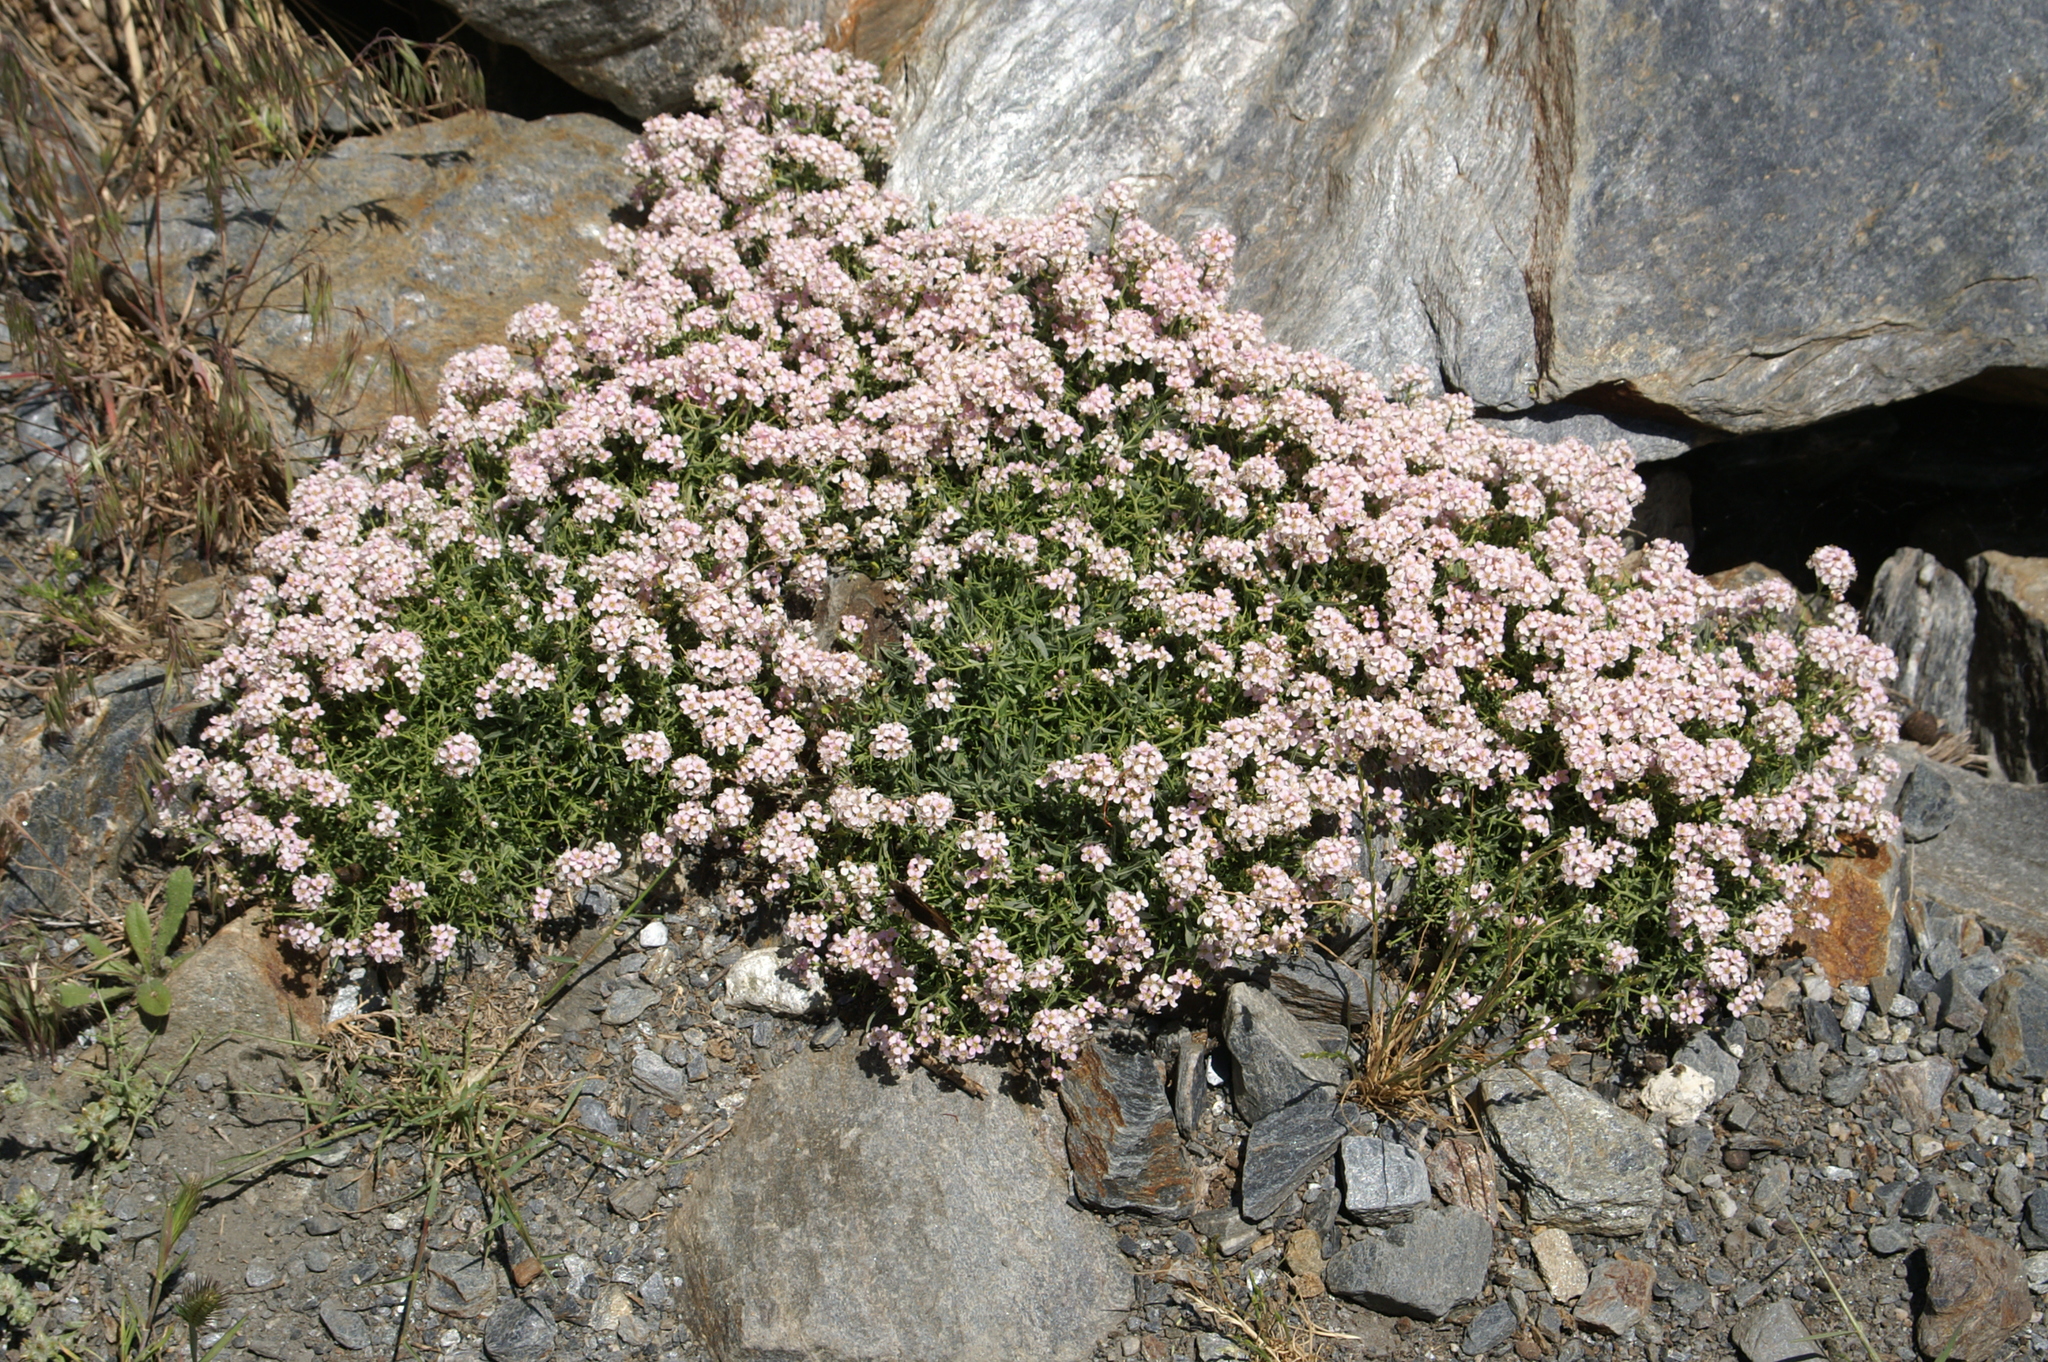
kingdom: Plantae
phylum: Tracheophyta
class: Magnoliopsida
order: Brassicales
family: Brassicaceae
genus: Hormathophylla
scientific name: Hormathophylla spinosa
